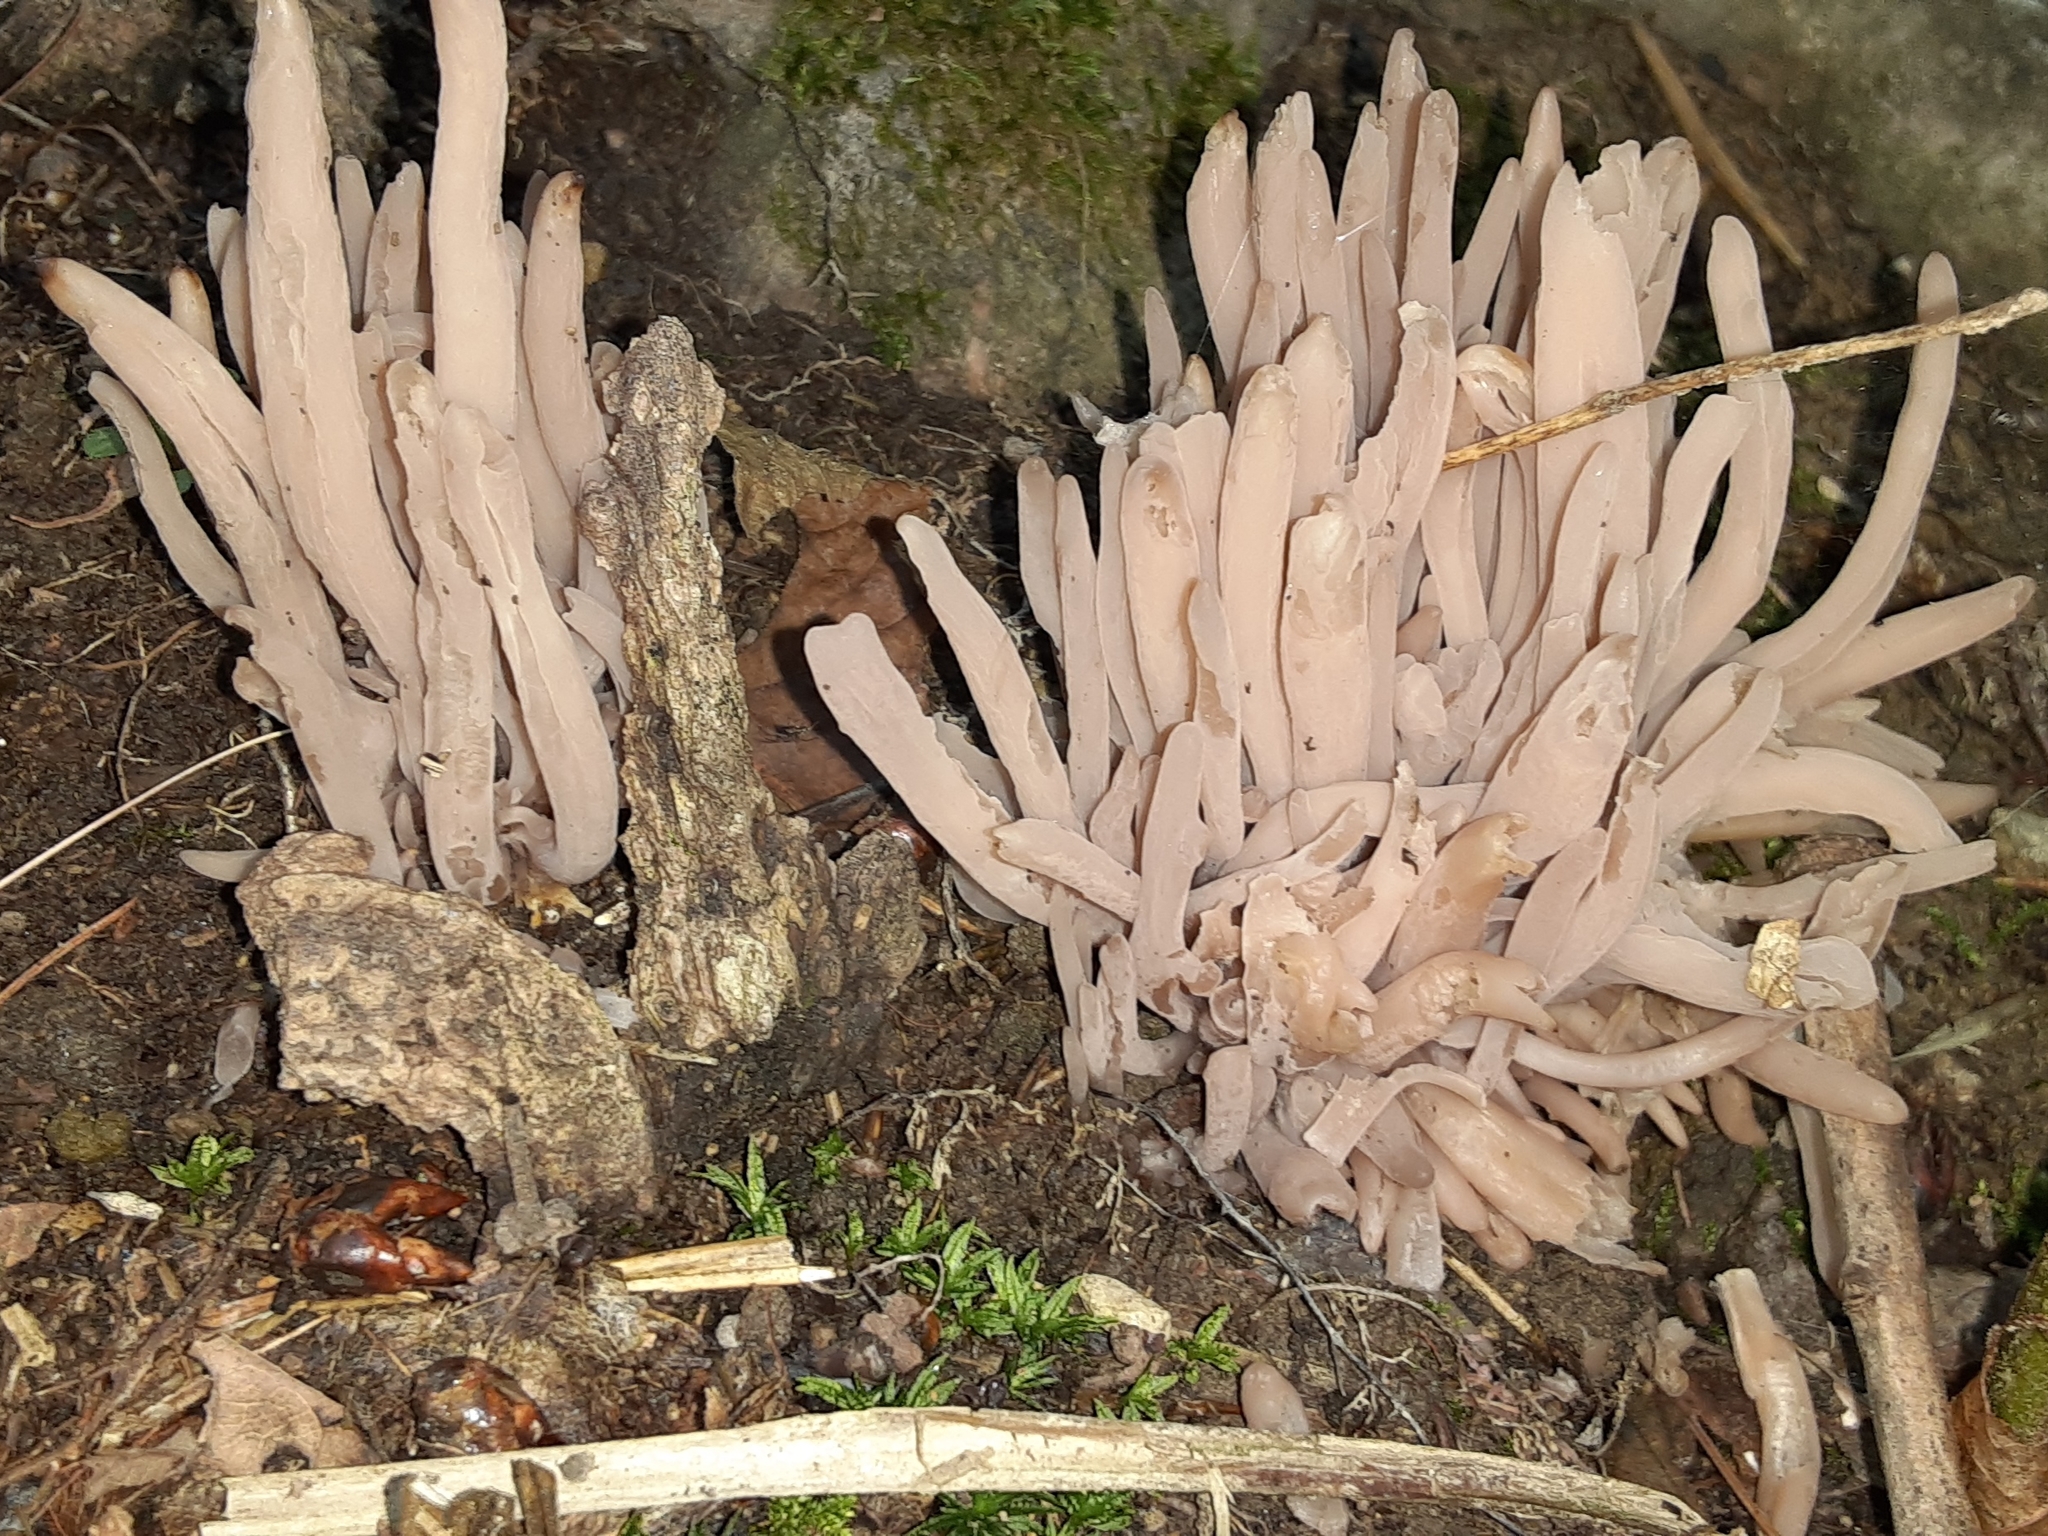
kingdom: Fungi
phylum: Basidiomycota
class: Agaricomycetes
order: Agaricales
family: Clavariaceae
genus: Clavaria
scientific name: Clavaria fragilis
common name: White spindles
